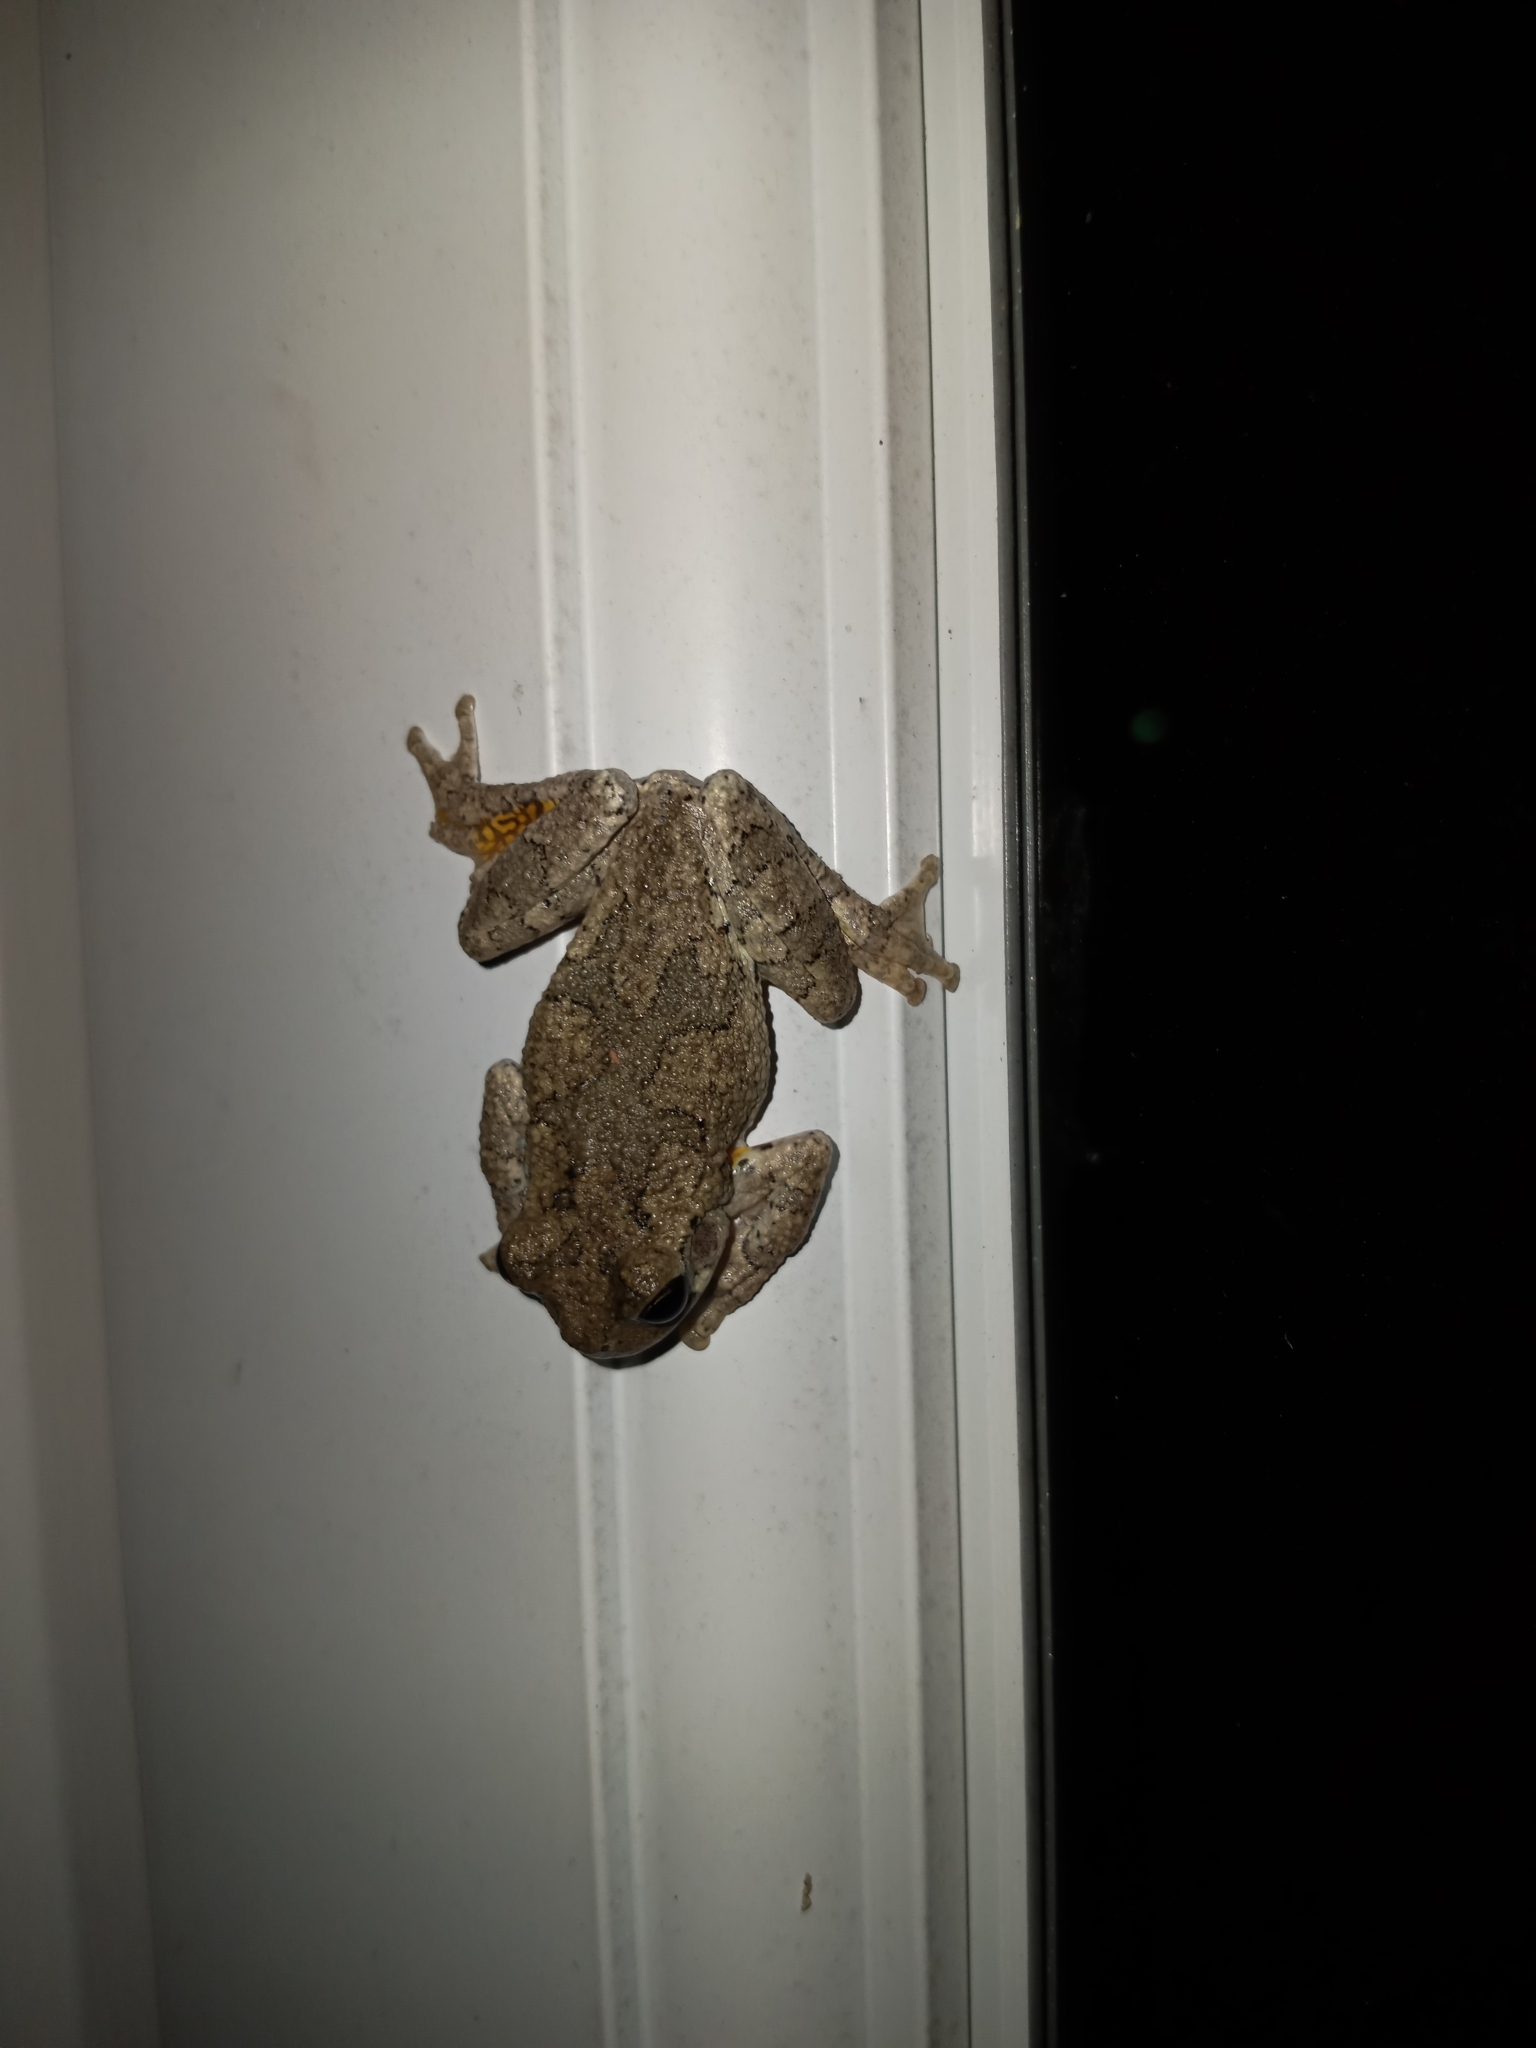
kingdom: Animalia
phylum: Chordata
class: Amphibia
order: Anura
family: Hylidae
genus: Dryophytes
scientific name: Dryophytes chrysoscelis
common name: Cope's gray treefrog
